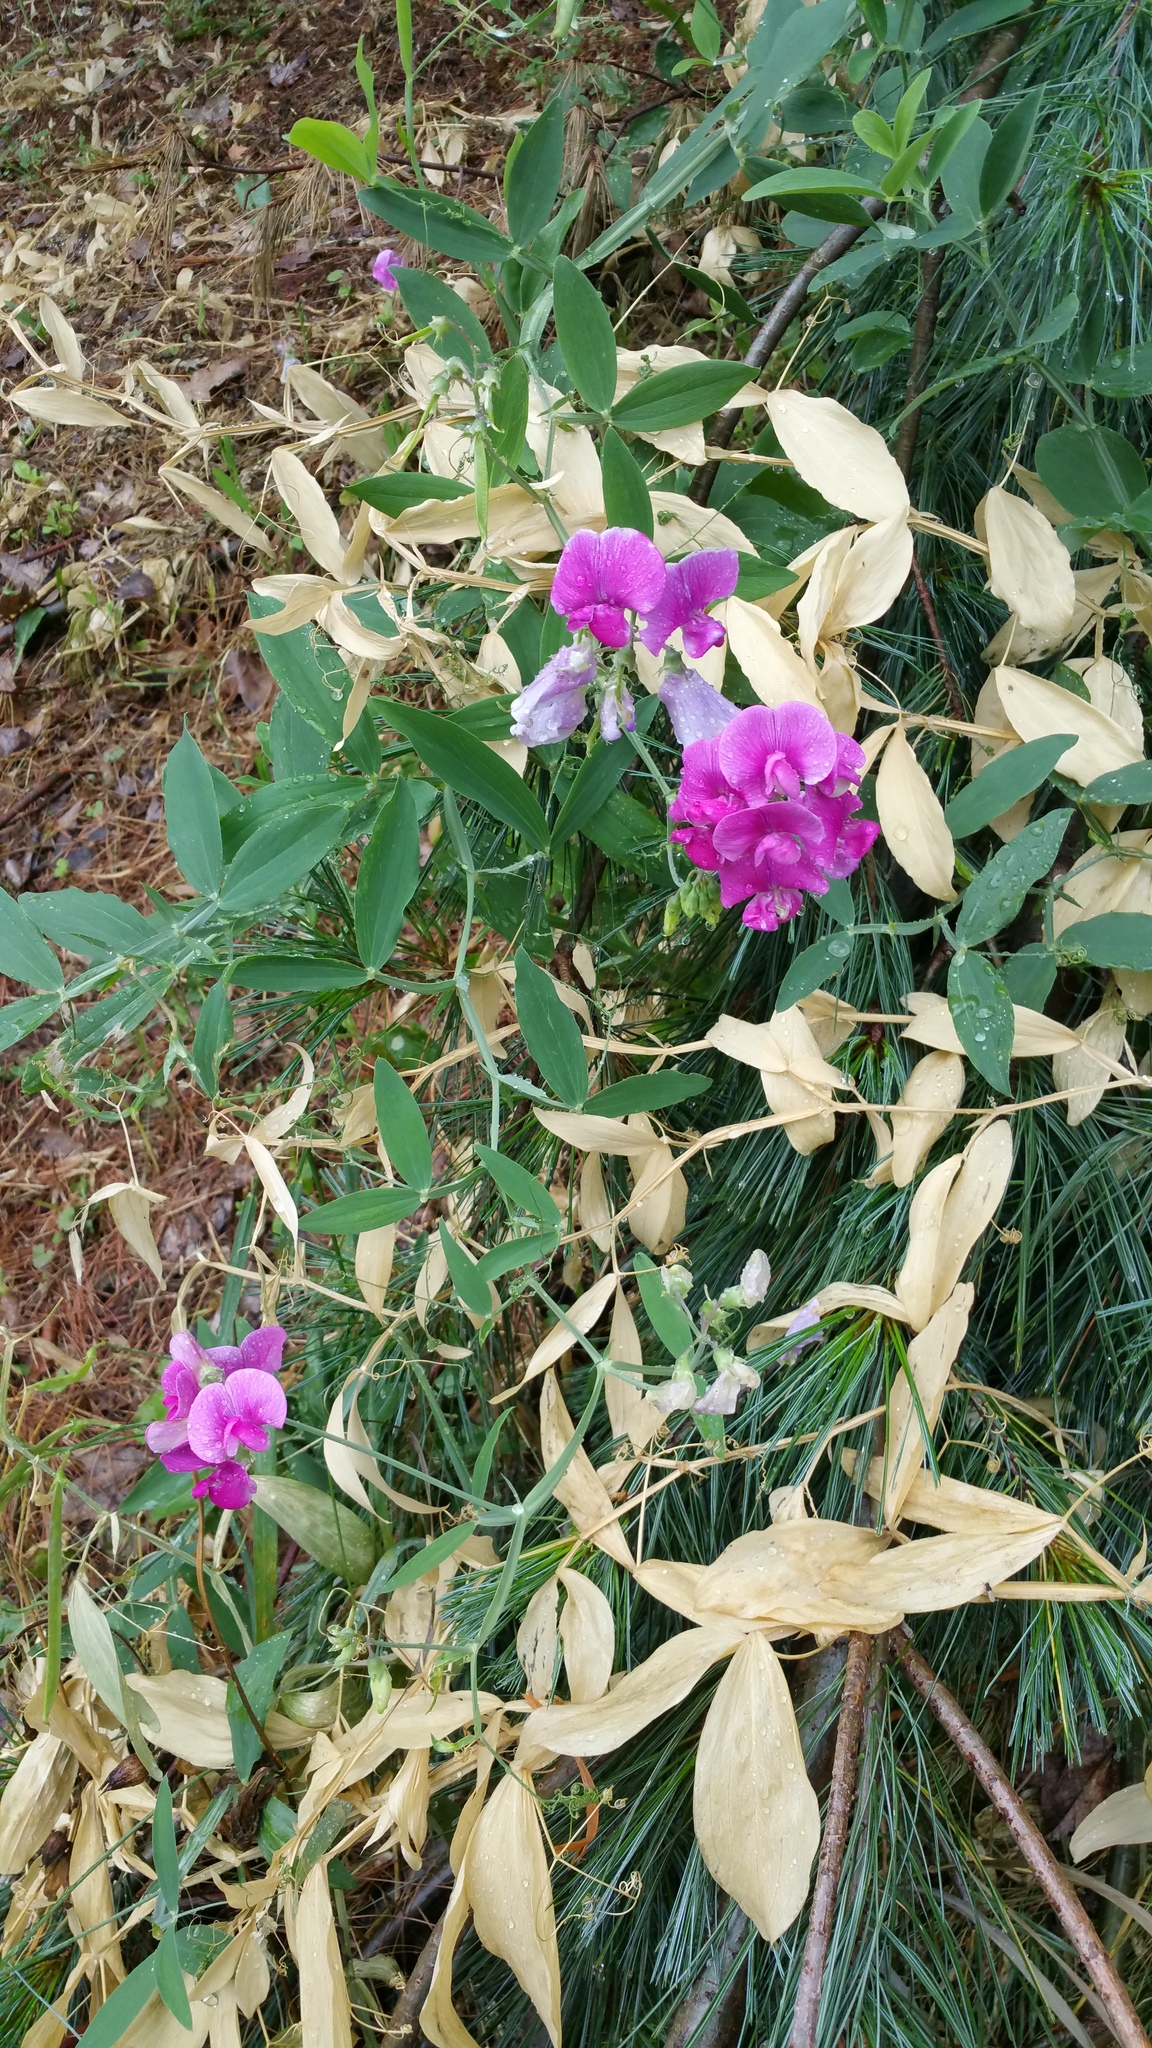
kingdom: Plantae
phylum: Tracheophyta
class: Magnoliopsida
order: Fabales
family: Fabaceae
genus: Lathyrus
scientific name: Lathyrus latifolius
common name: Perennial pea
